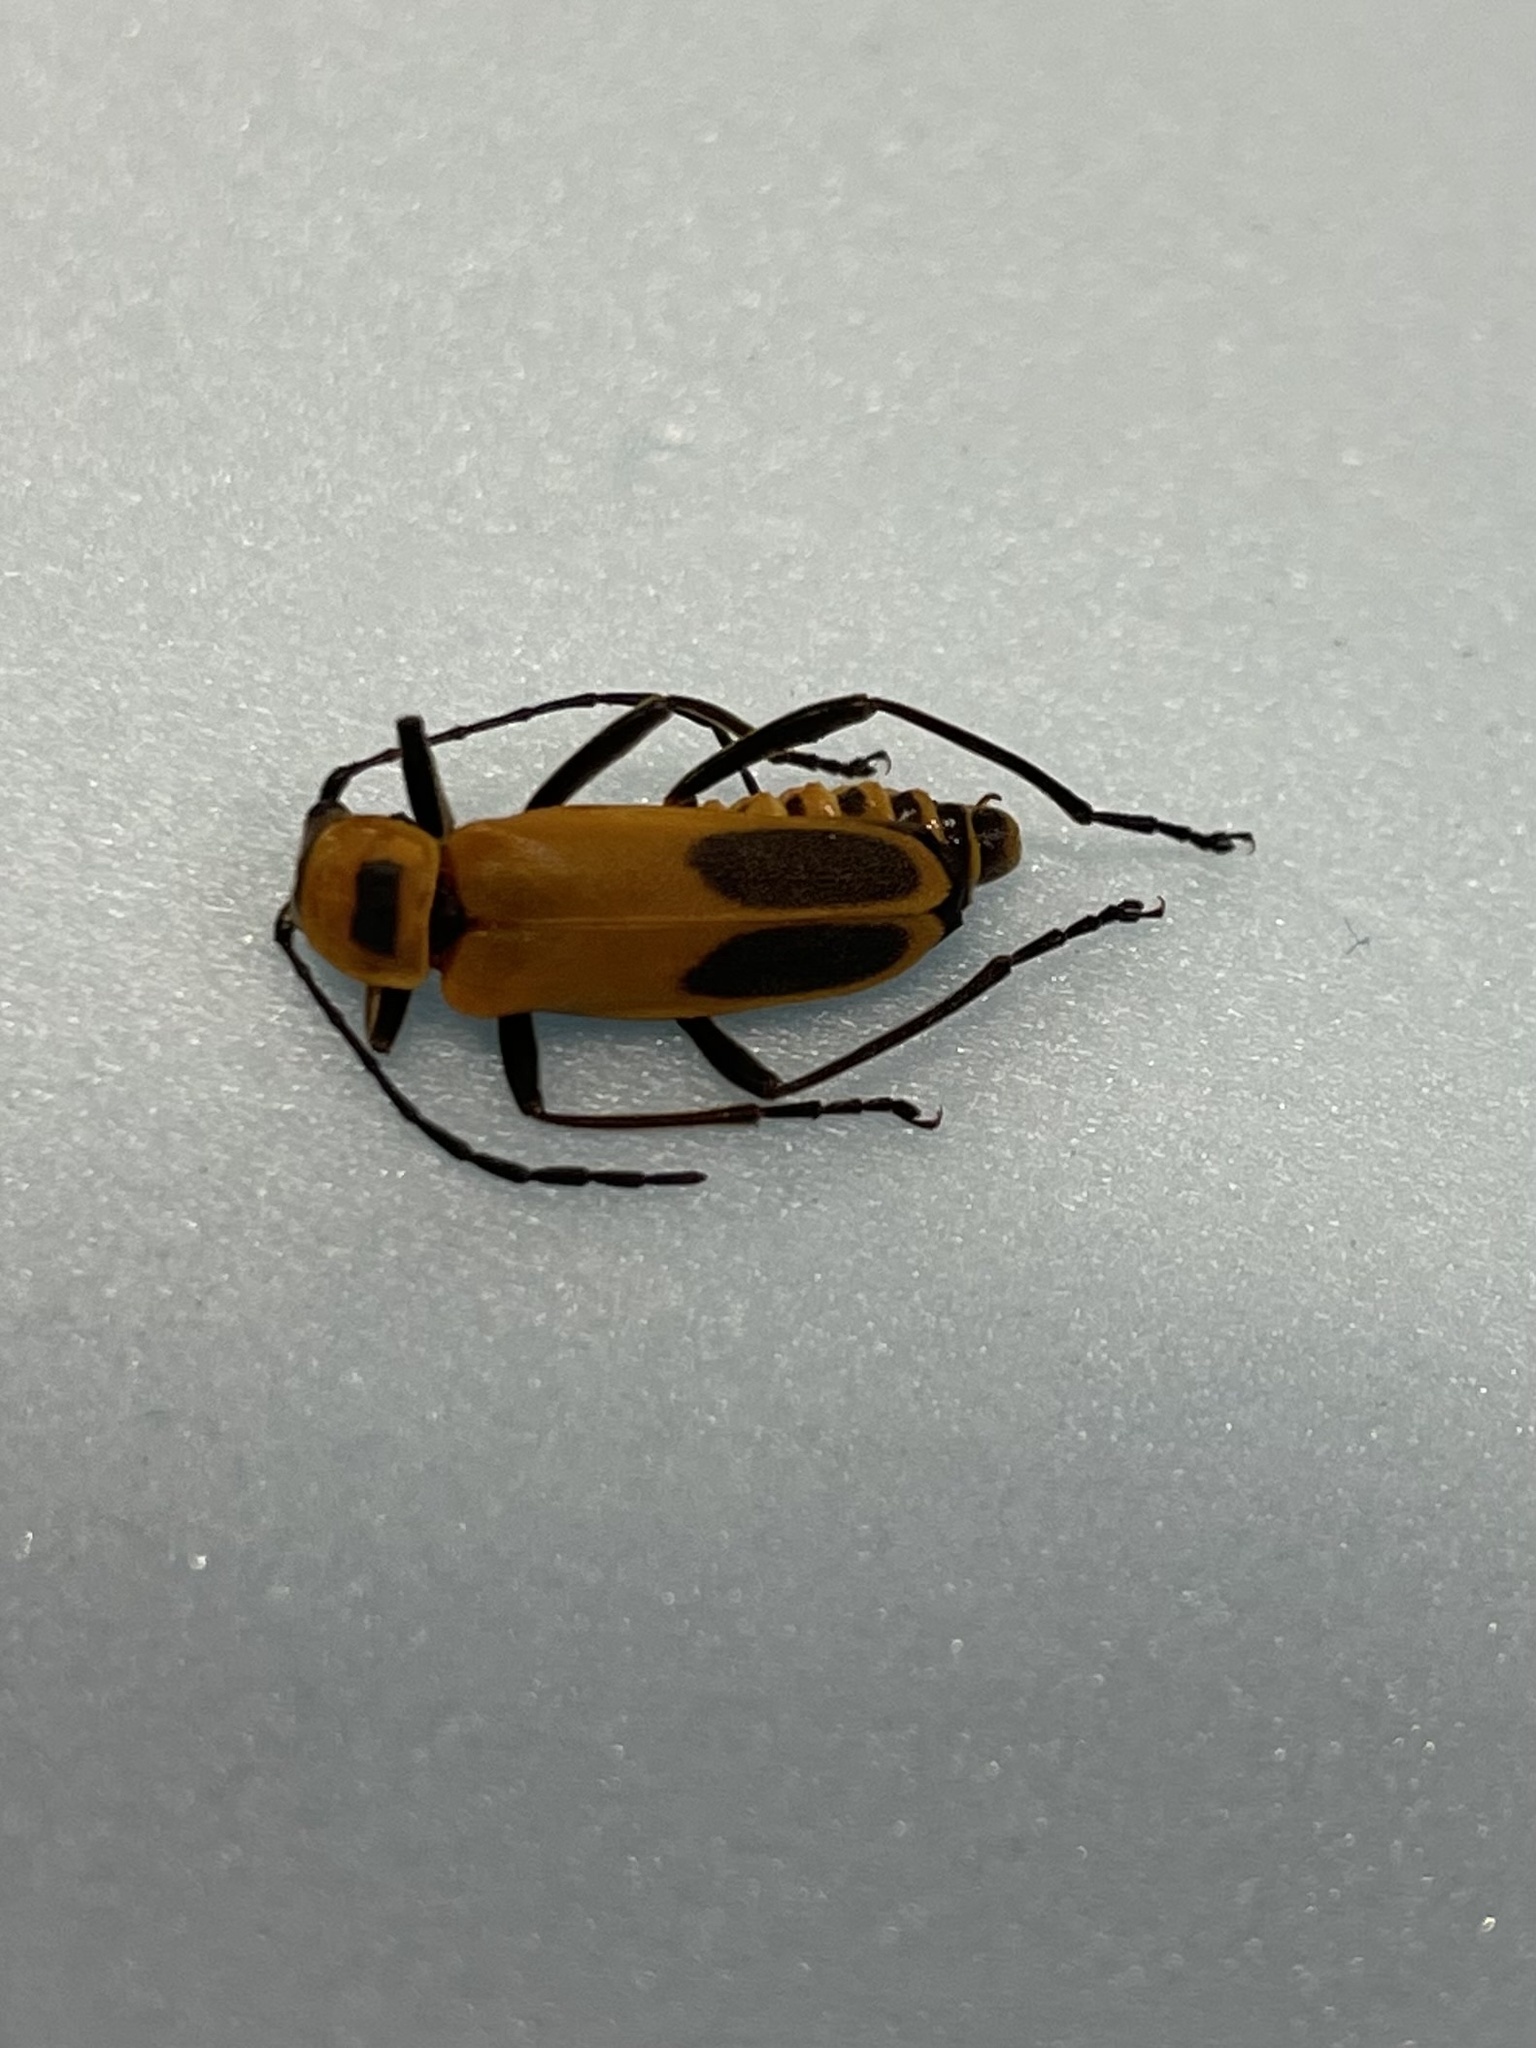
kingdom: Animalia
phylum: Arthropoda
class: Insecta
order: Coleoptera
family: Cantharidae
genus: Chauliognathus
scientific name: Chauliognathus pensylvanicus
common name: Goldenrod soldier beetle
